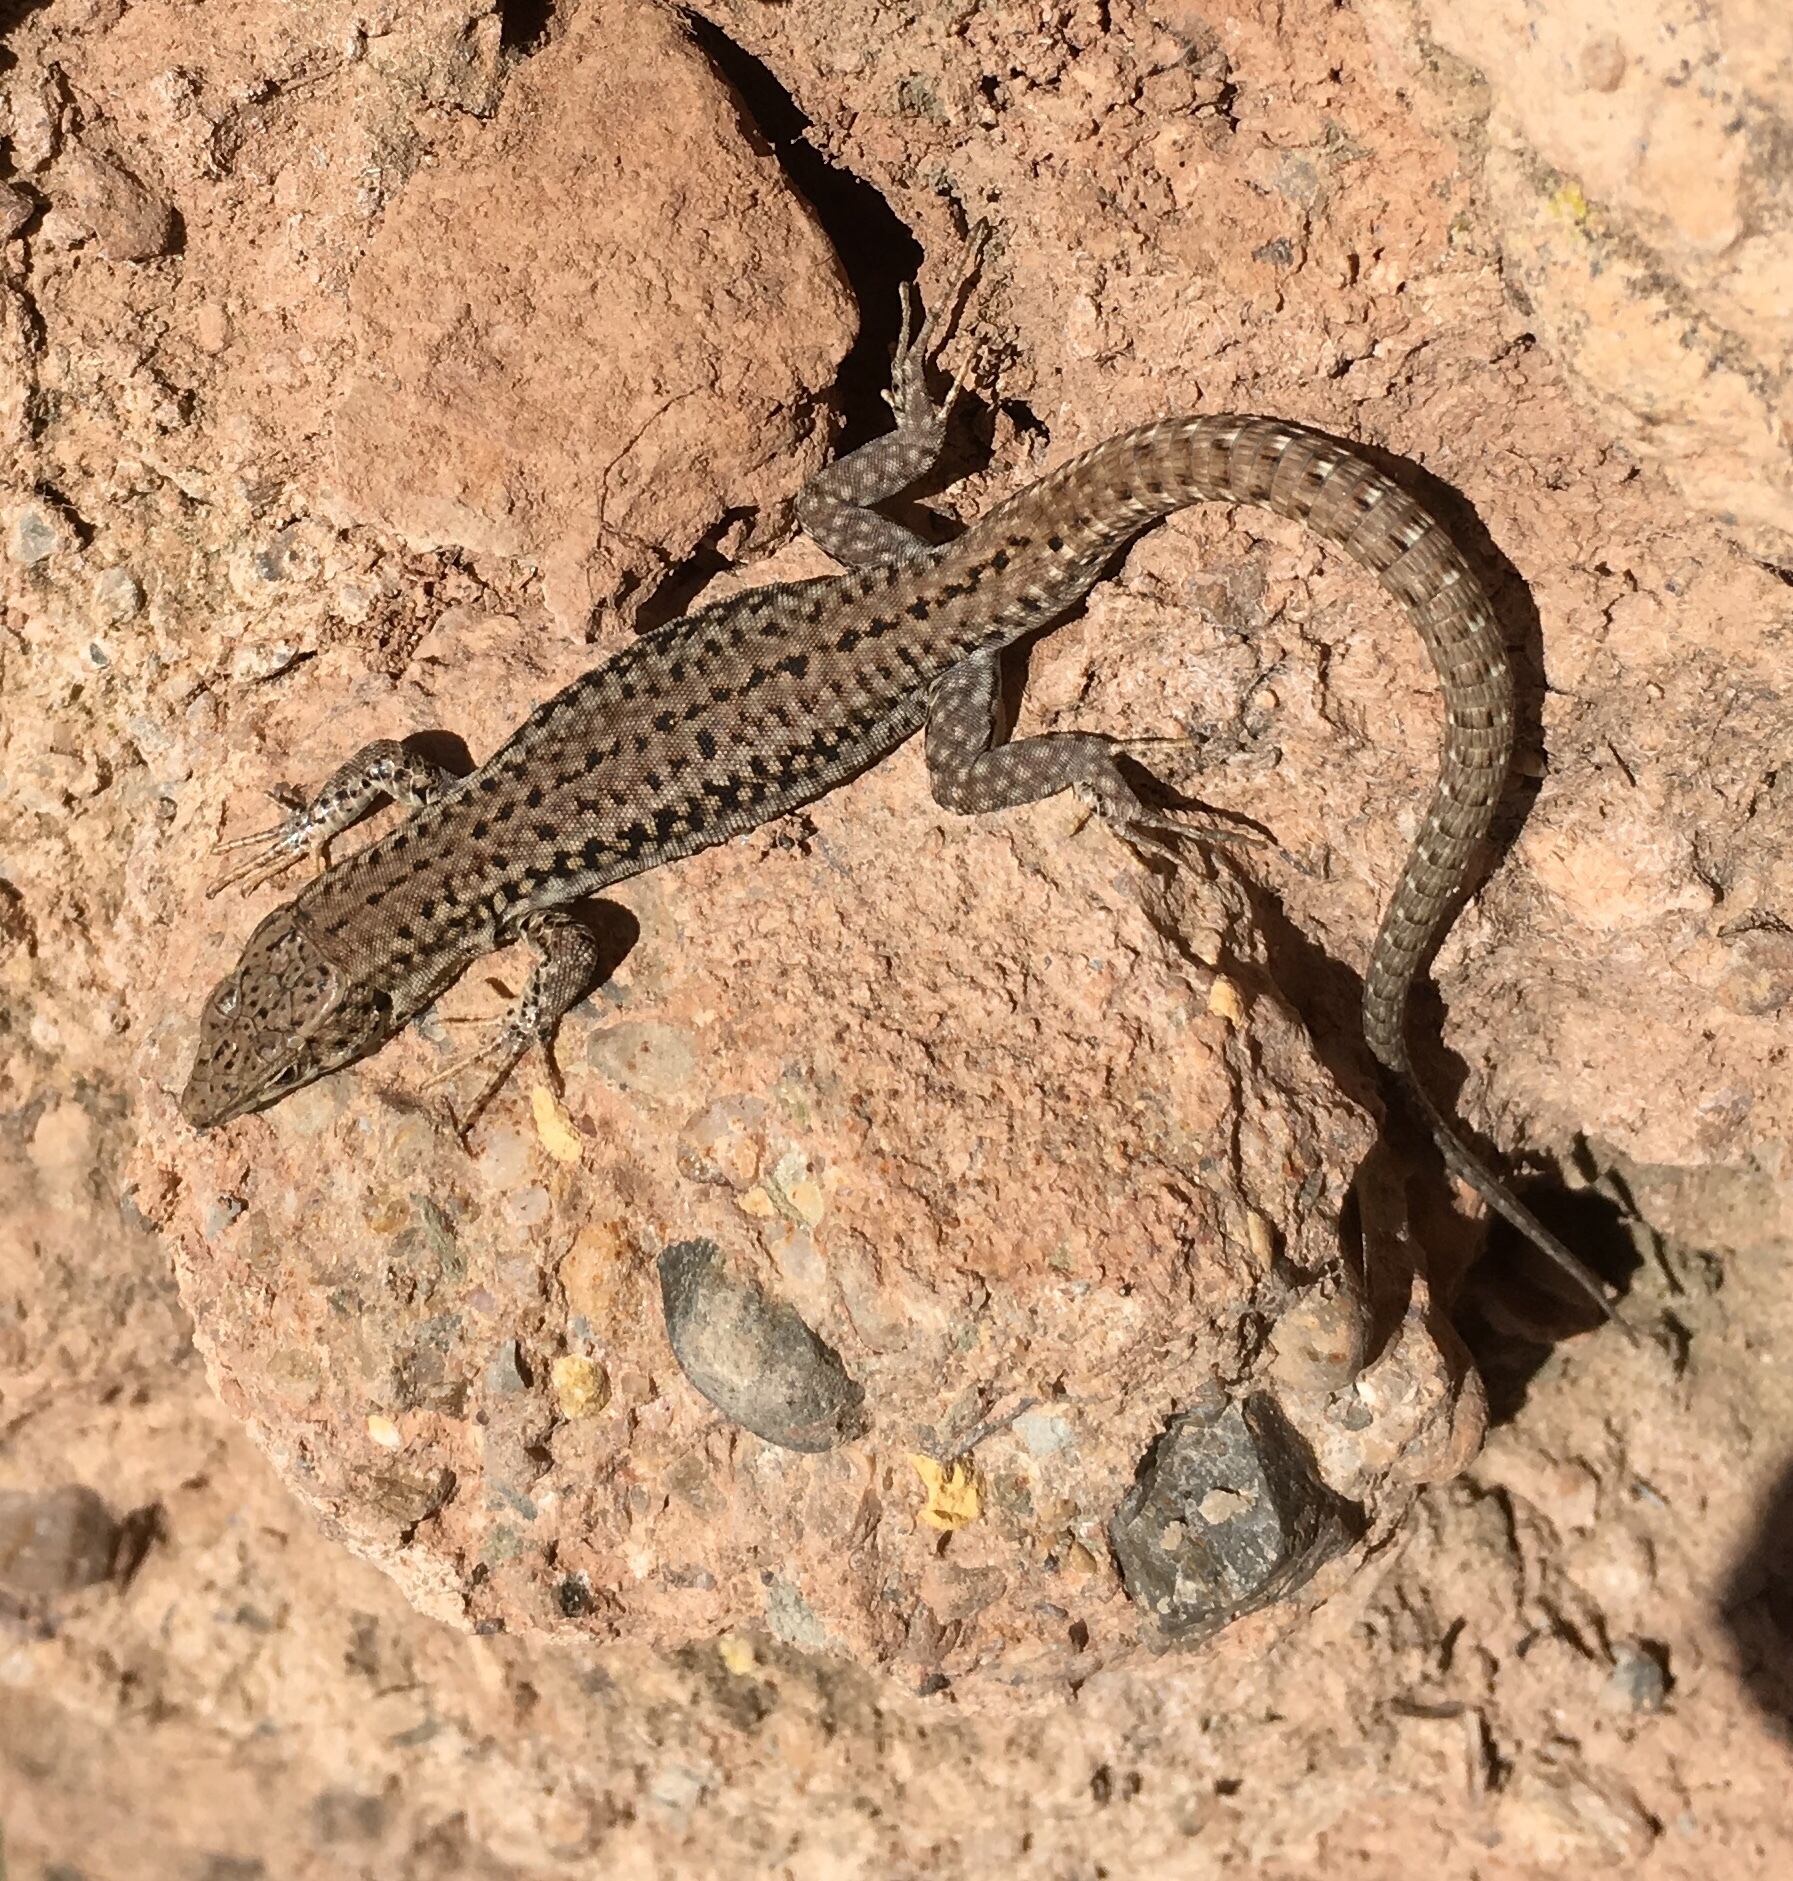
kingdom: Animalia
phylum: Chordata
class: Squamata
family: Lacertidae
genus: Podarcis
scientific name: Podarcis liolepis
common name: Catalonian wall lizard
